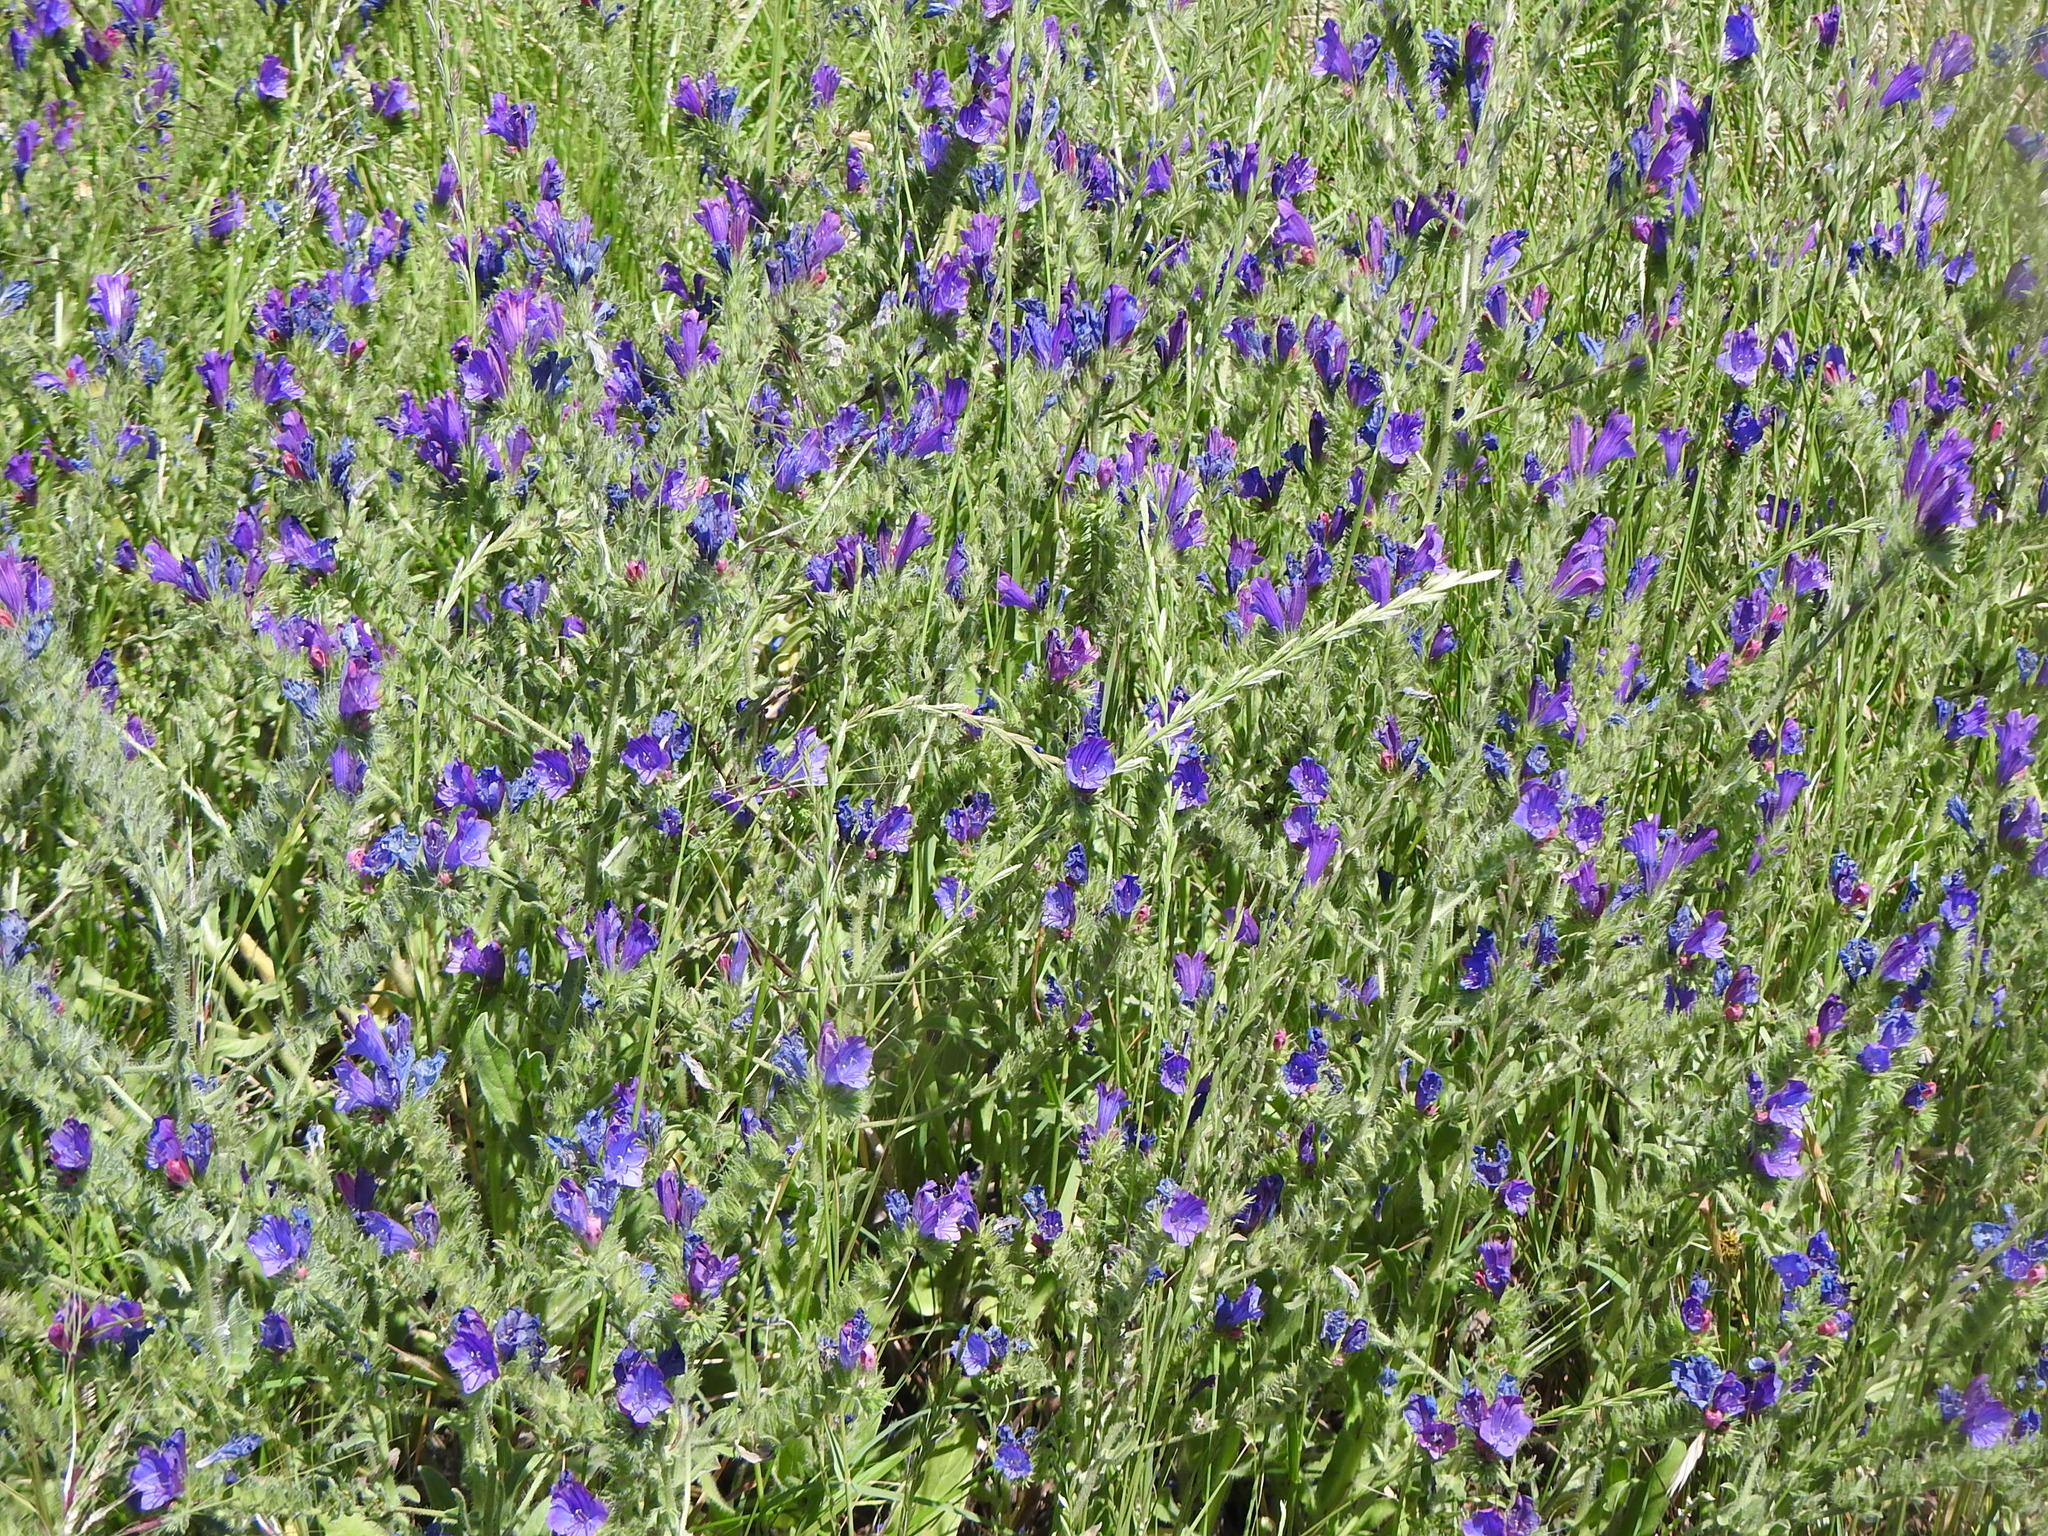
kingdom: Plantae
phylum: Tracheophyta
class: Magnoliopsida
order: Boraginales
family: Boraginaceae
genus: Echium
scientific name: Echium plantagineum
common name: Purple viper's-bugloss
